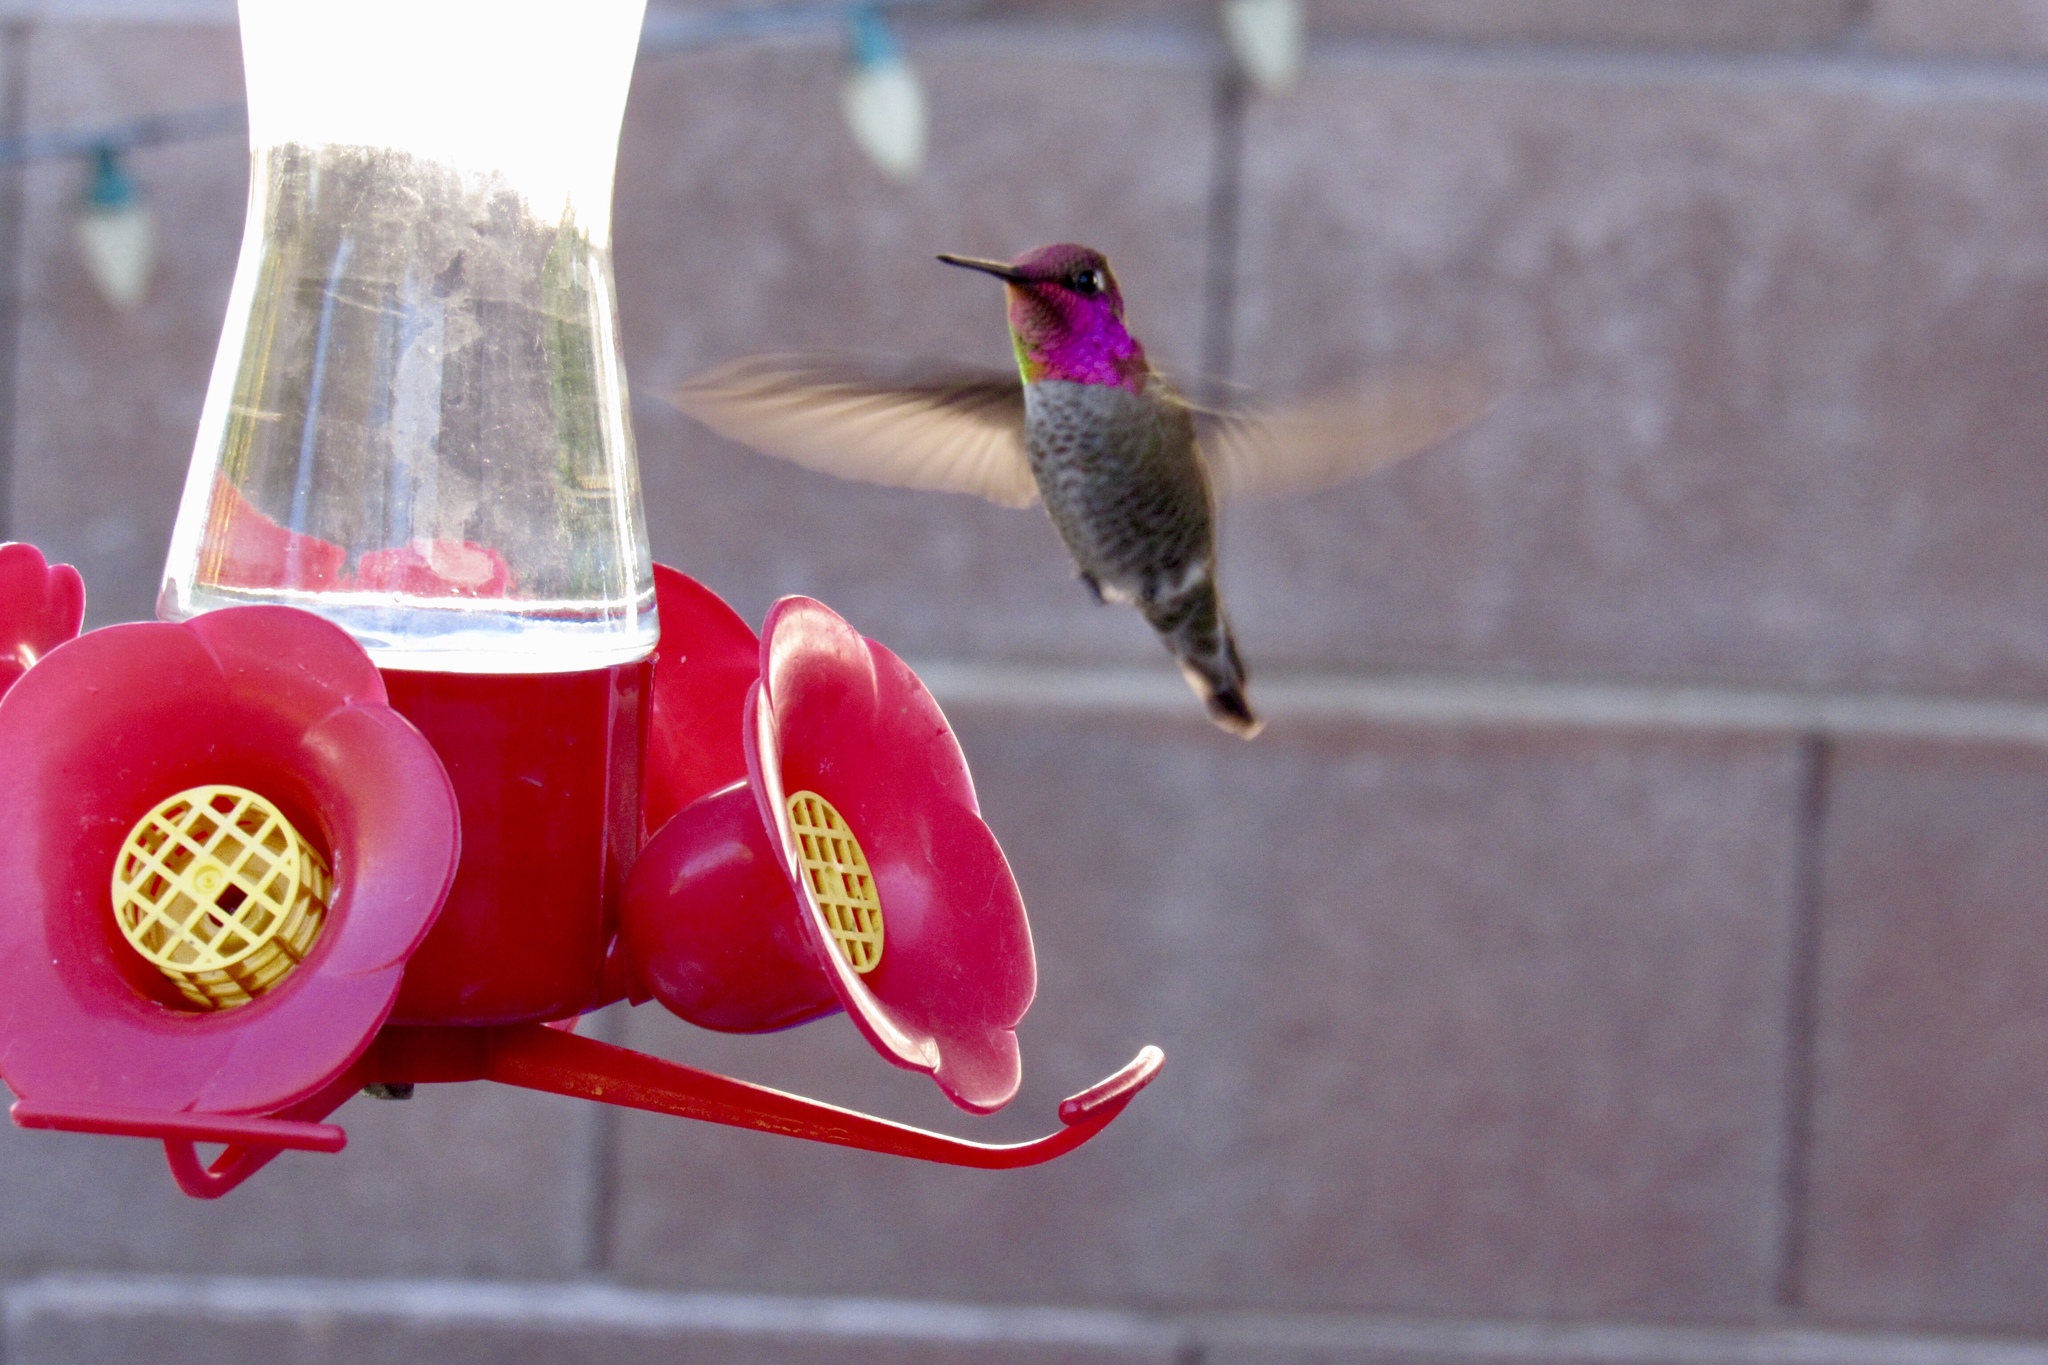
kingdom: Animalia
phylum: Chordata
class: Aves
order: Apodiformes
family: Trochilidae
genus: Calypte
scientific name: Calypte anna
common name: Anna's hummingbird
